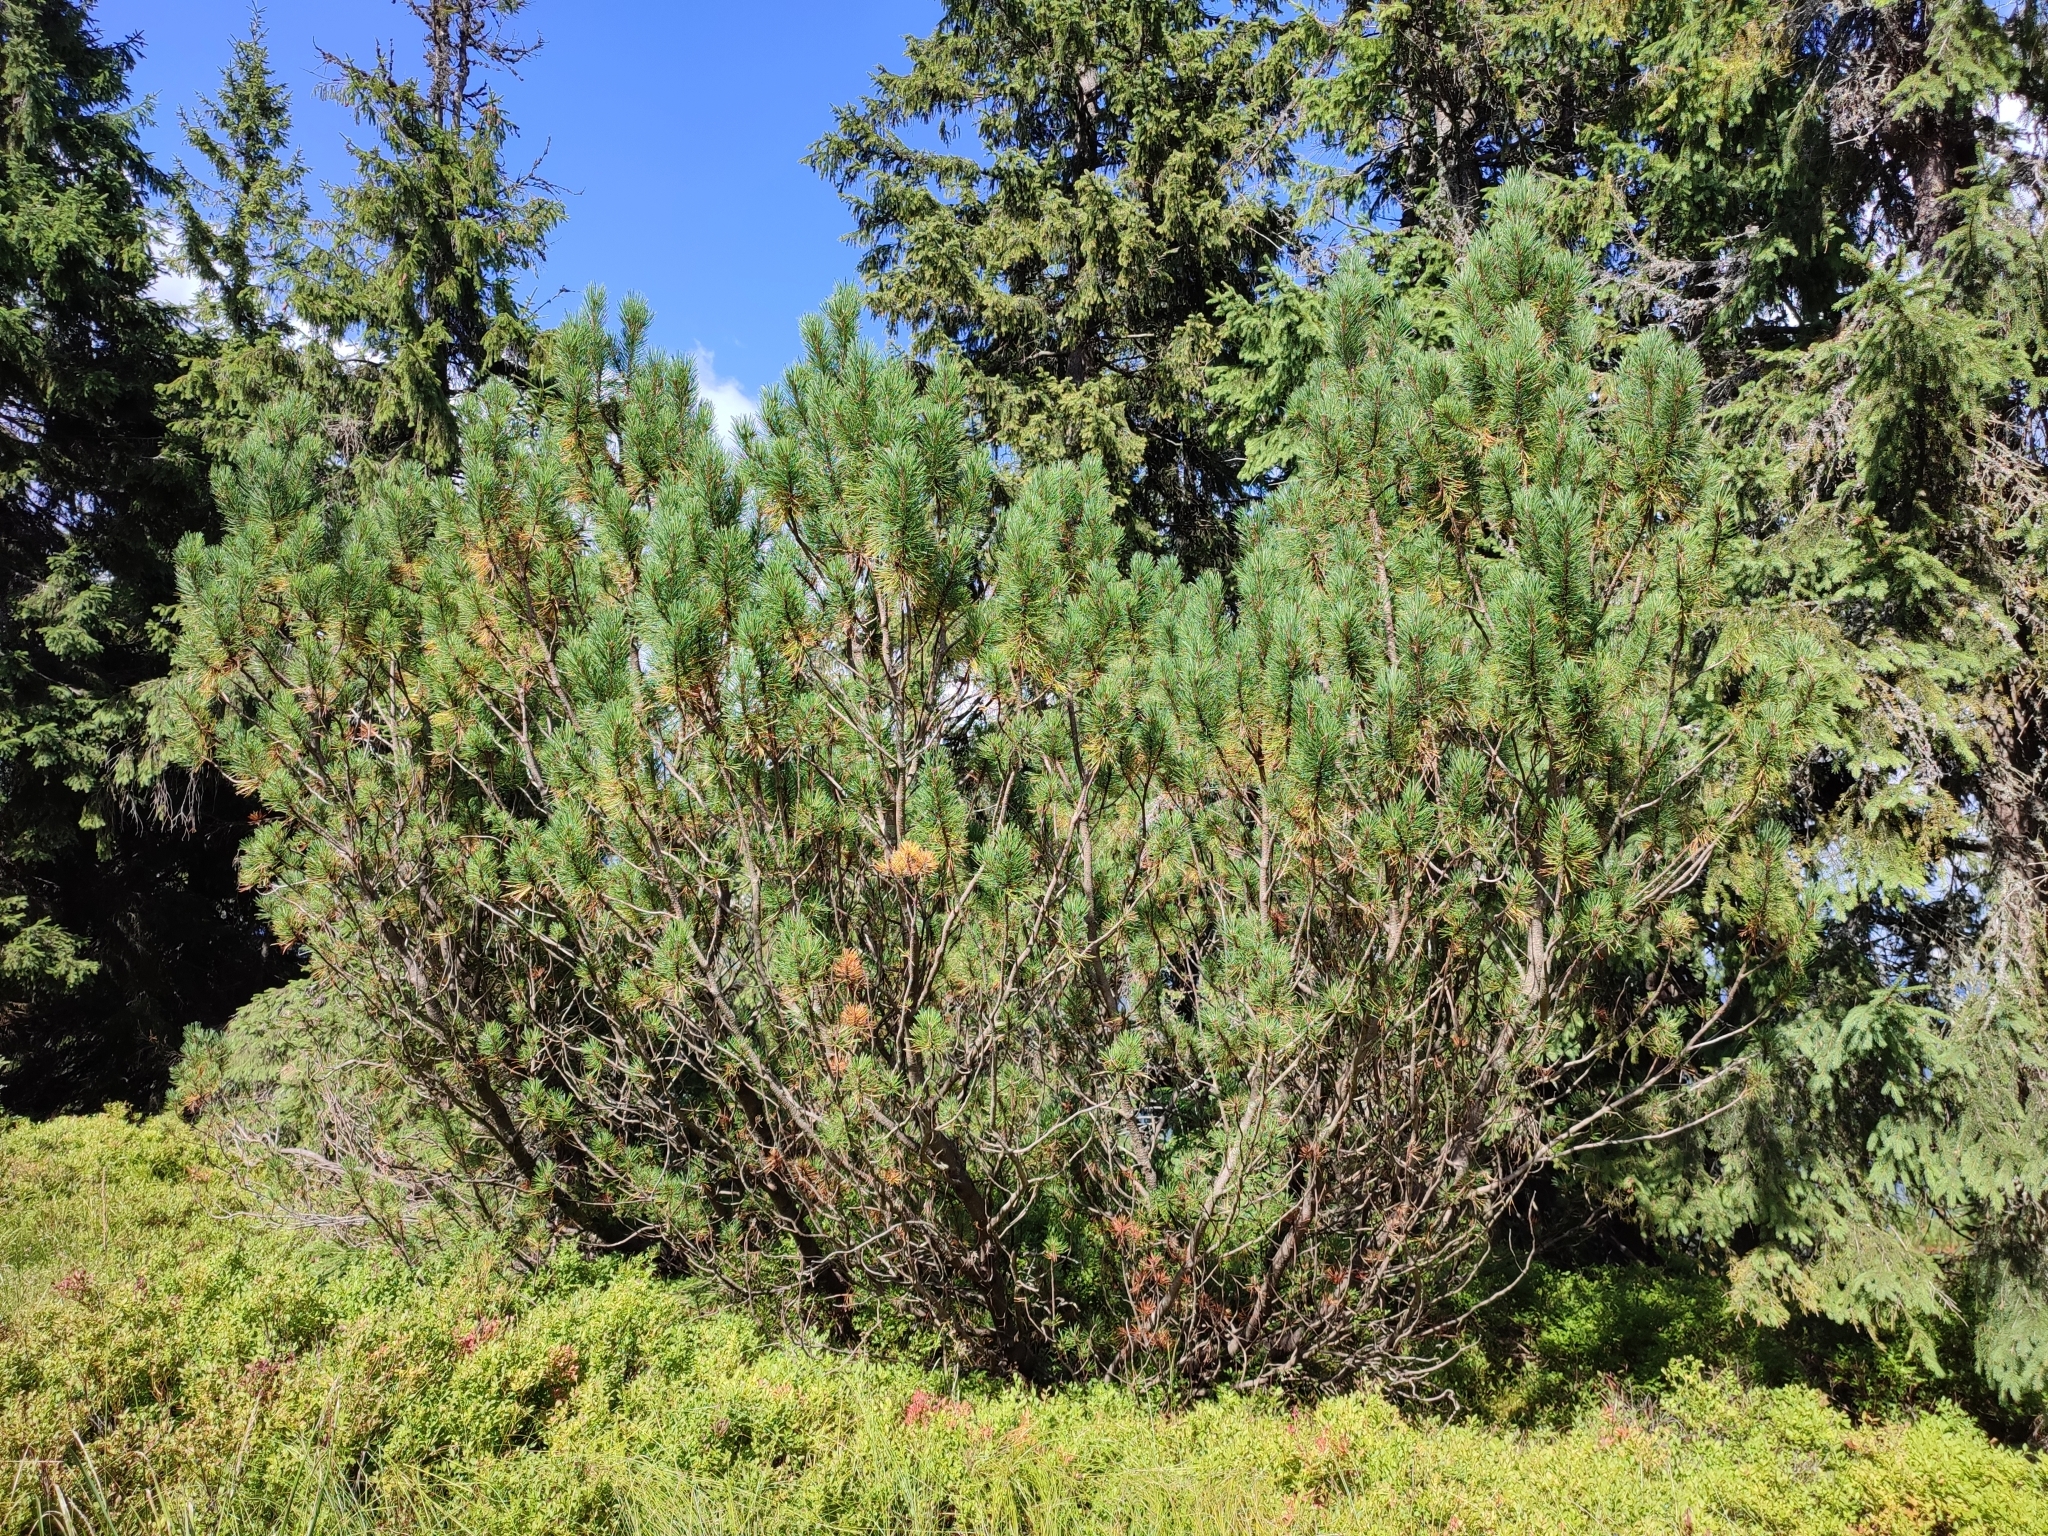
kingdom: Plantae
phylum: Tracheophyta
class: Pinopsida
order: Pinales
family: Pinaceae
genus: Pinus
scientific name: Pinus mugo
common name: Mugo pine
